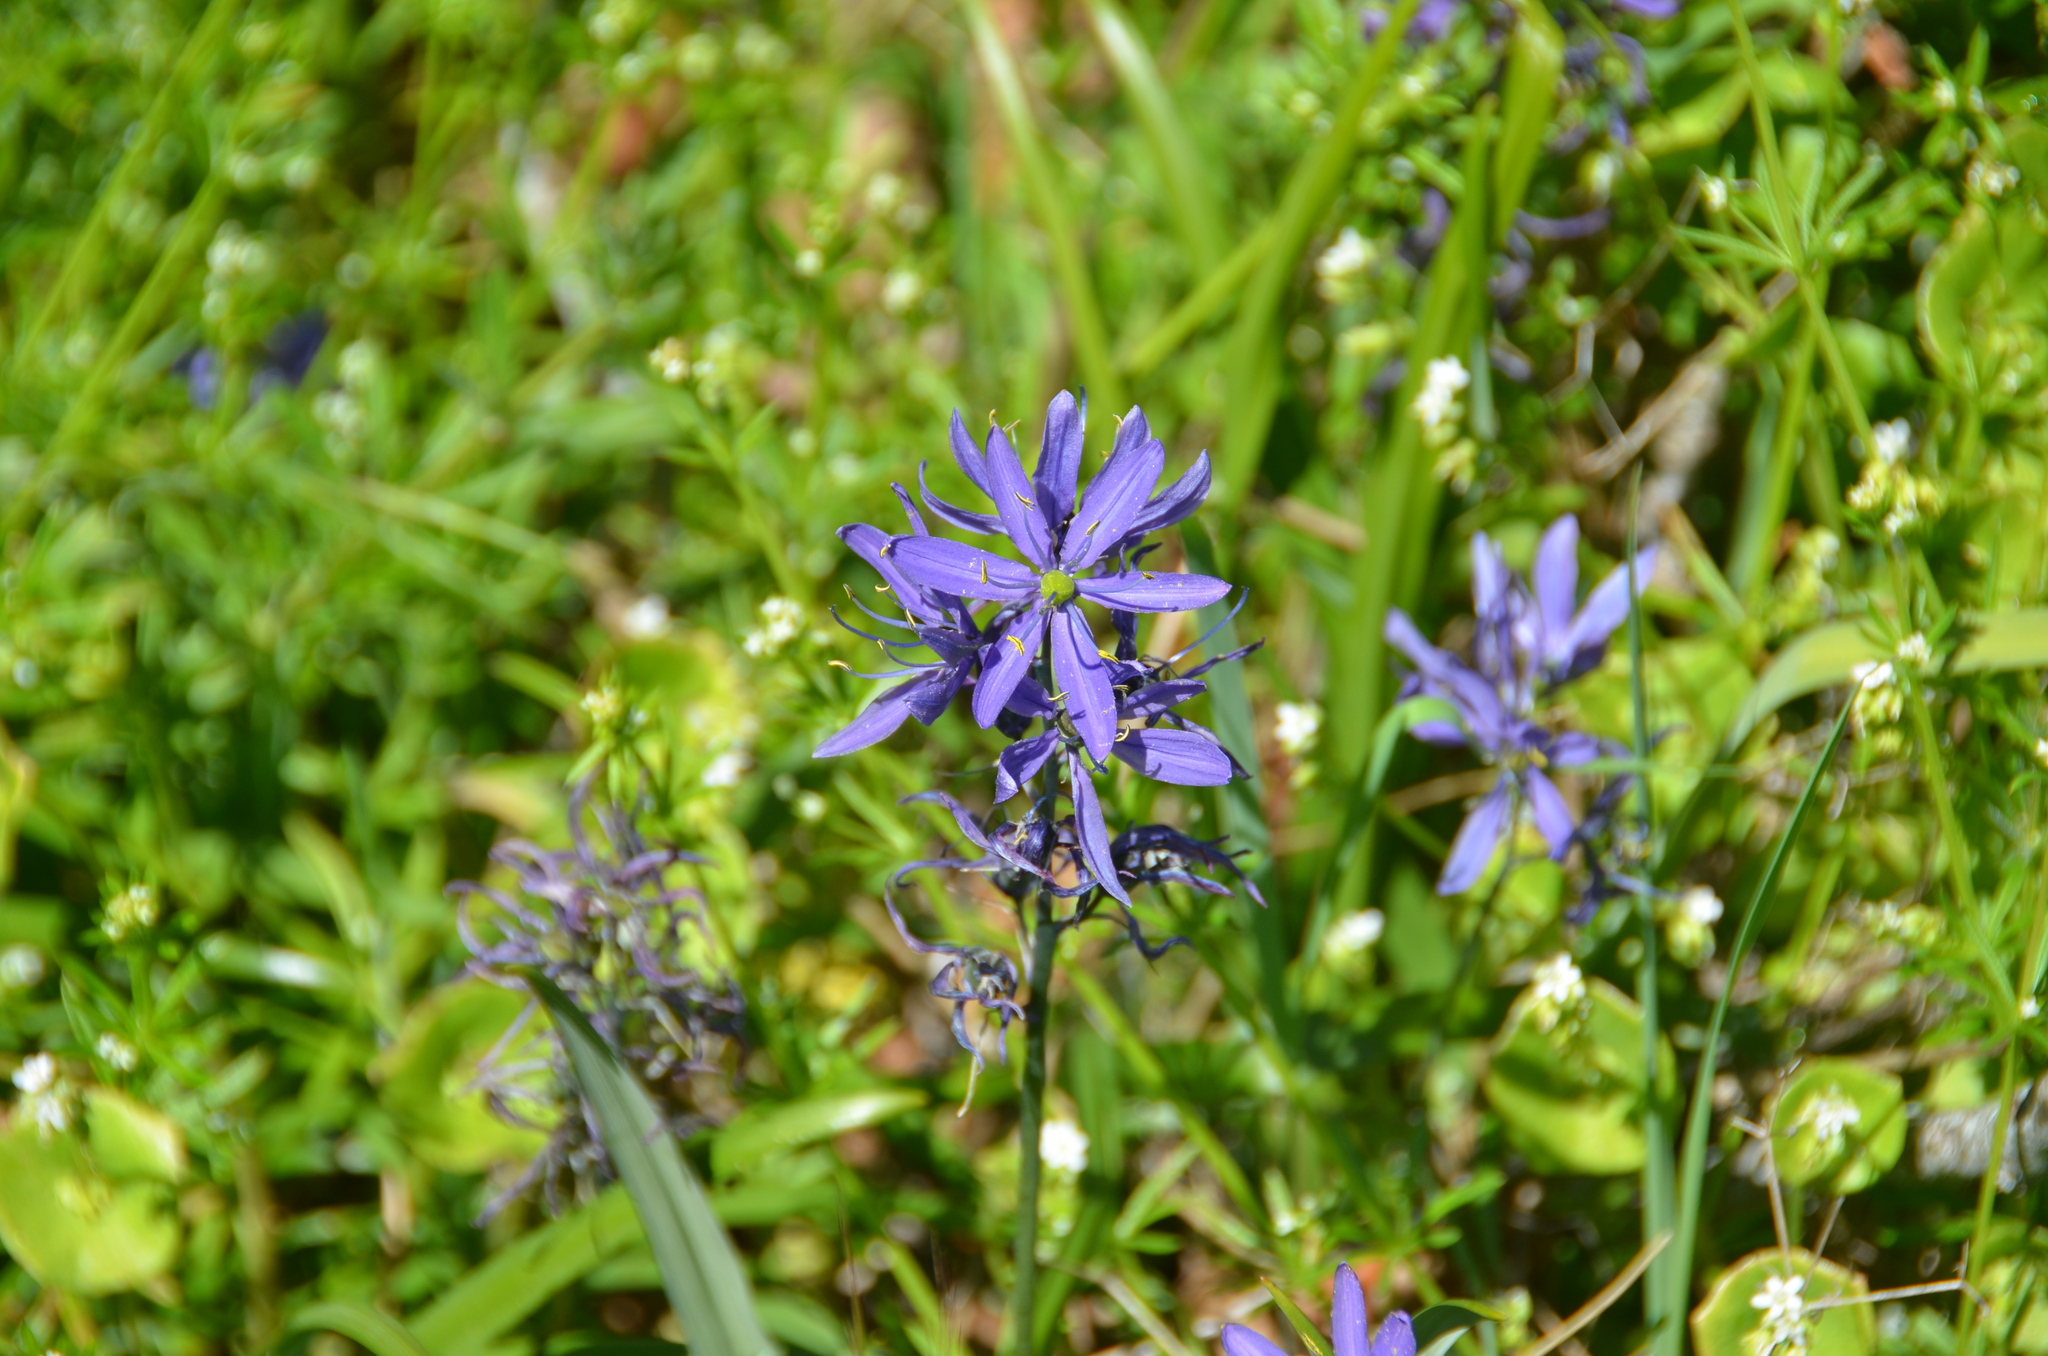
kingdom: Plantae
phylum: Tracheophyta
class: Liliopsida
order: Asparagales
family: Asparagaceae
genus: Camassia
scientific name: Camassia leichtlinii
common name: Leichtlin's camas
